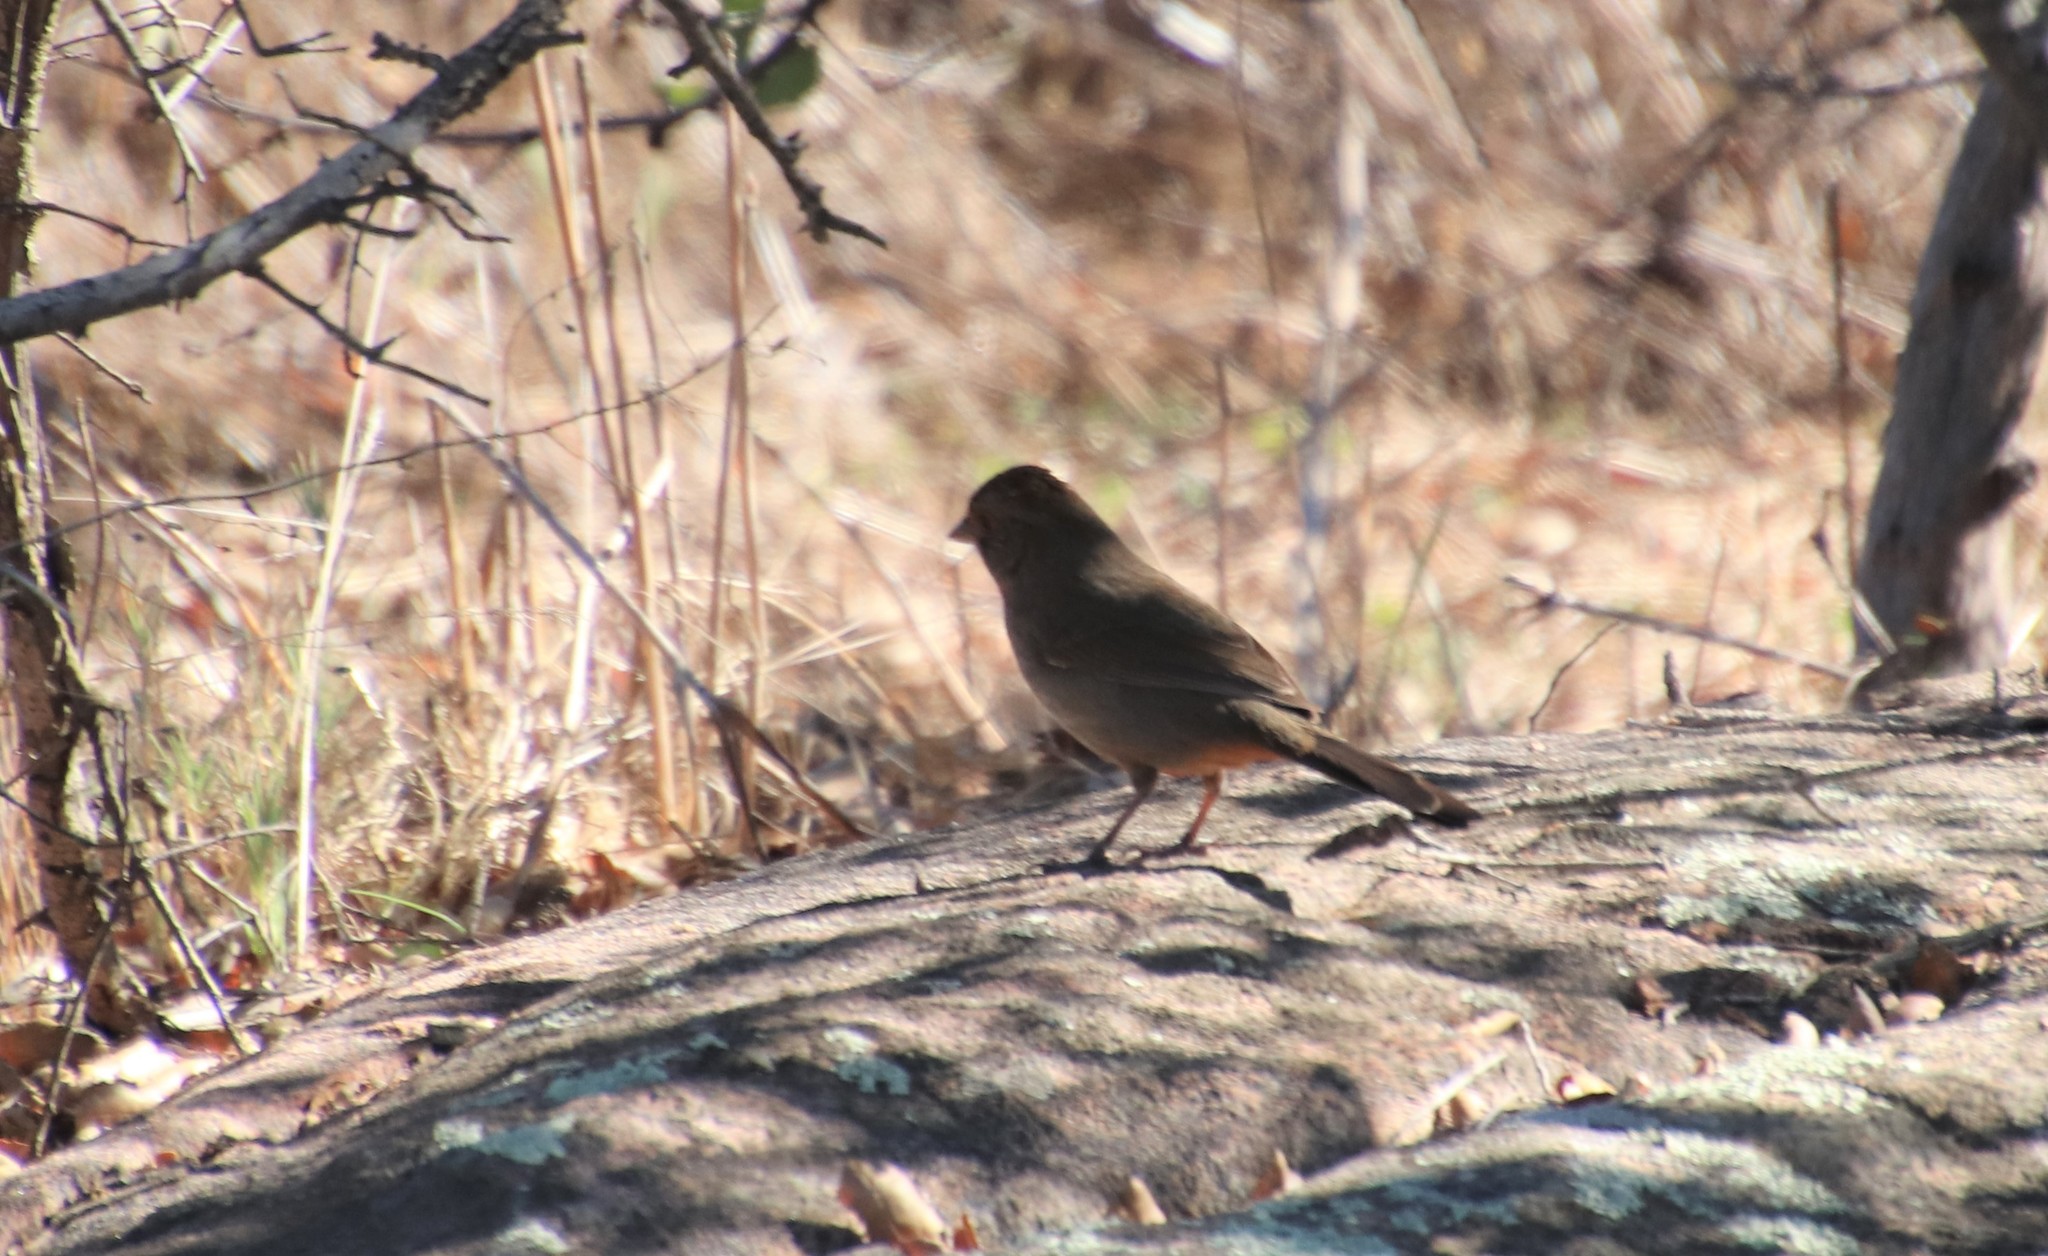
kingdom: Animalia
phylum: Chordata
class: Aves
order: Passeriformes
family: Passerellidae
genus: Melozone
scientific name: Melozone crissalis
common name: California towhee
